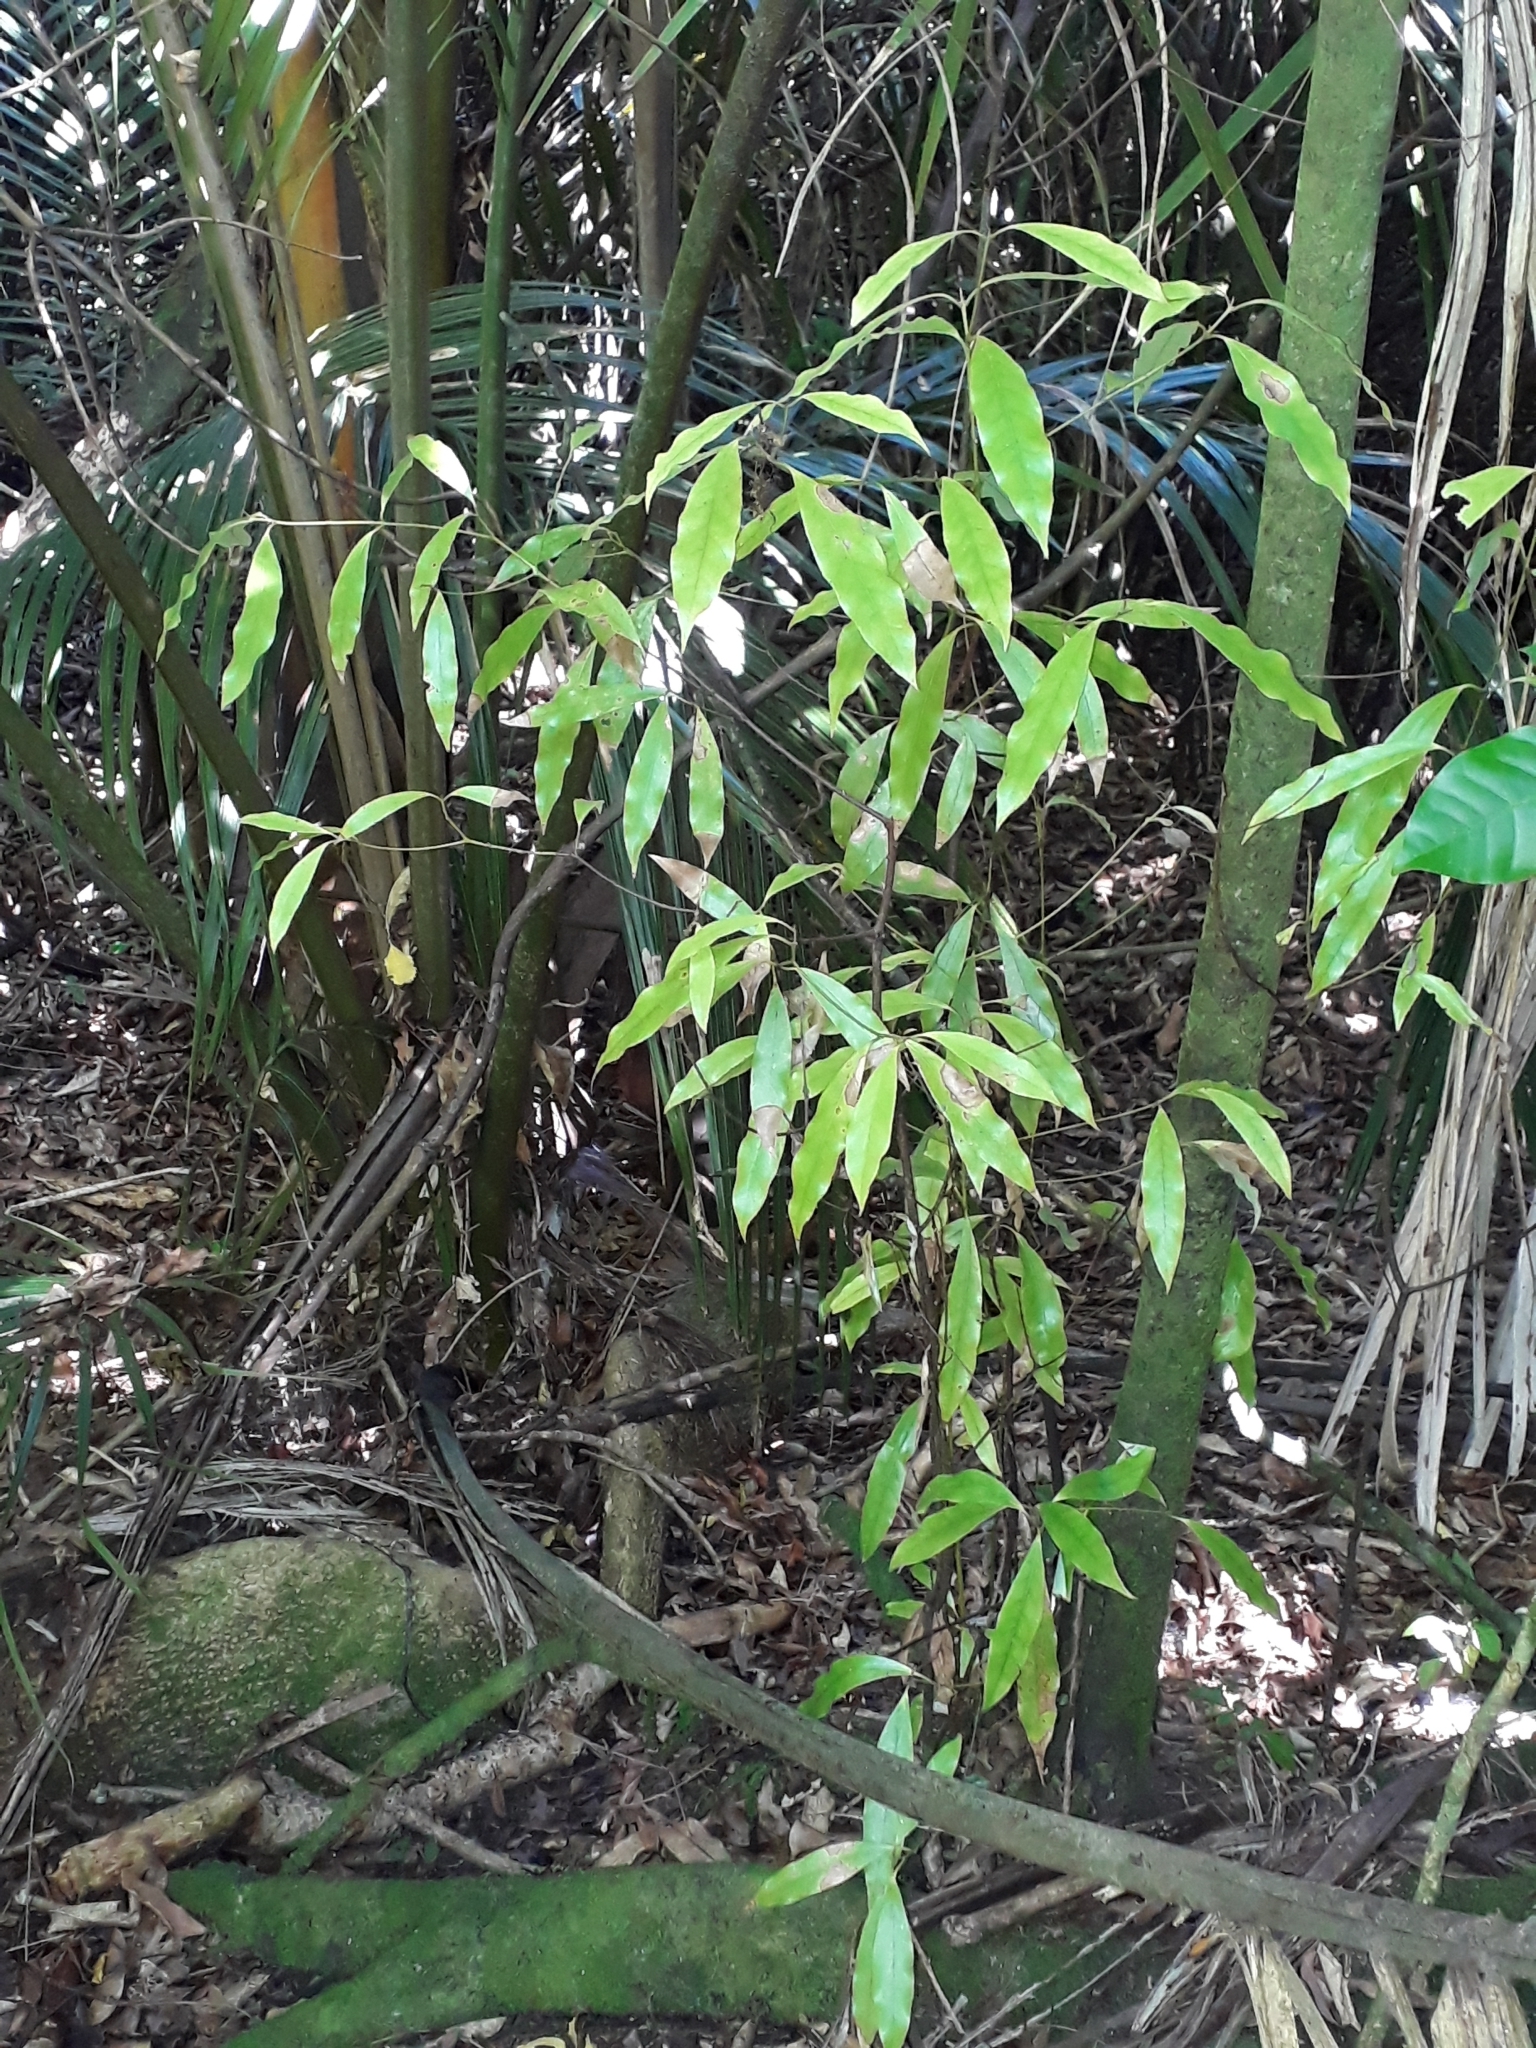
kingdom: Plantae
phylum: Tracheophyta
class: Magnoliopsida
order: Laurales
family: Lauraceae
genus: Beilschmiedia
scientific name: Beilschmiedia tawa
